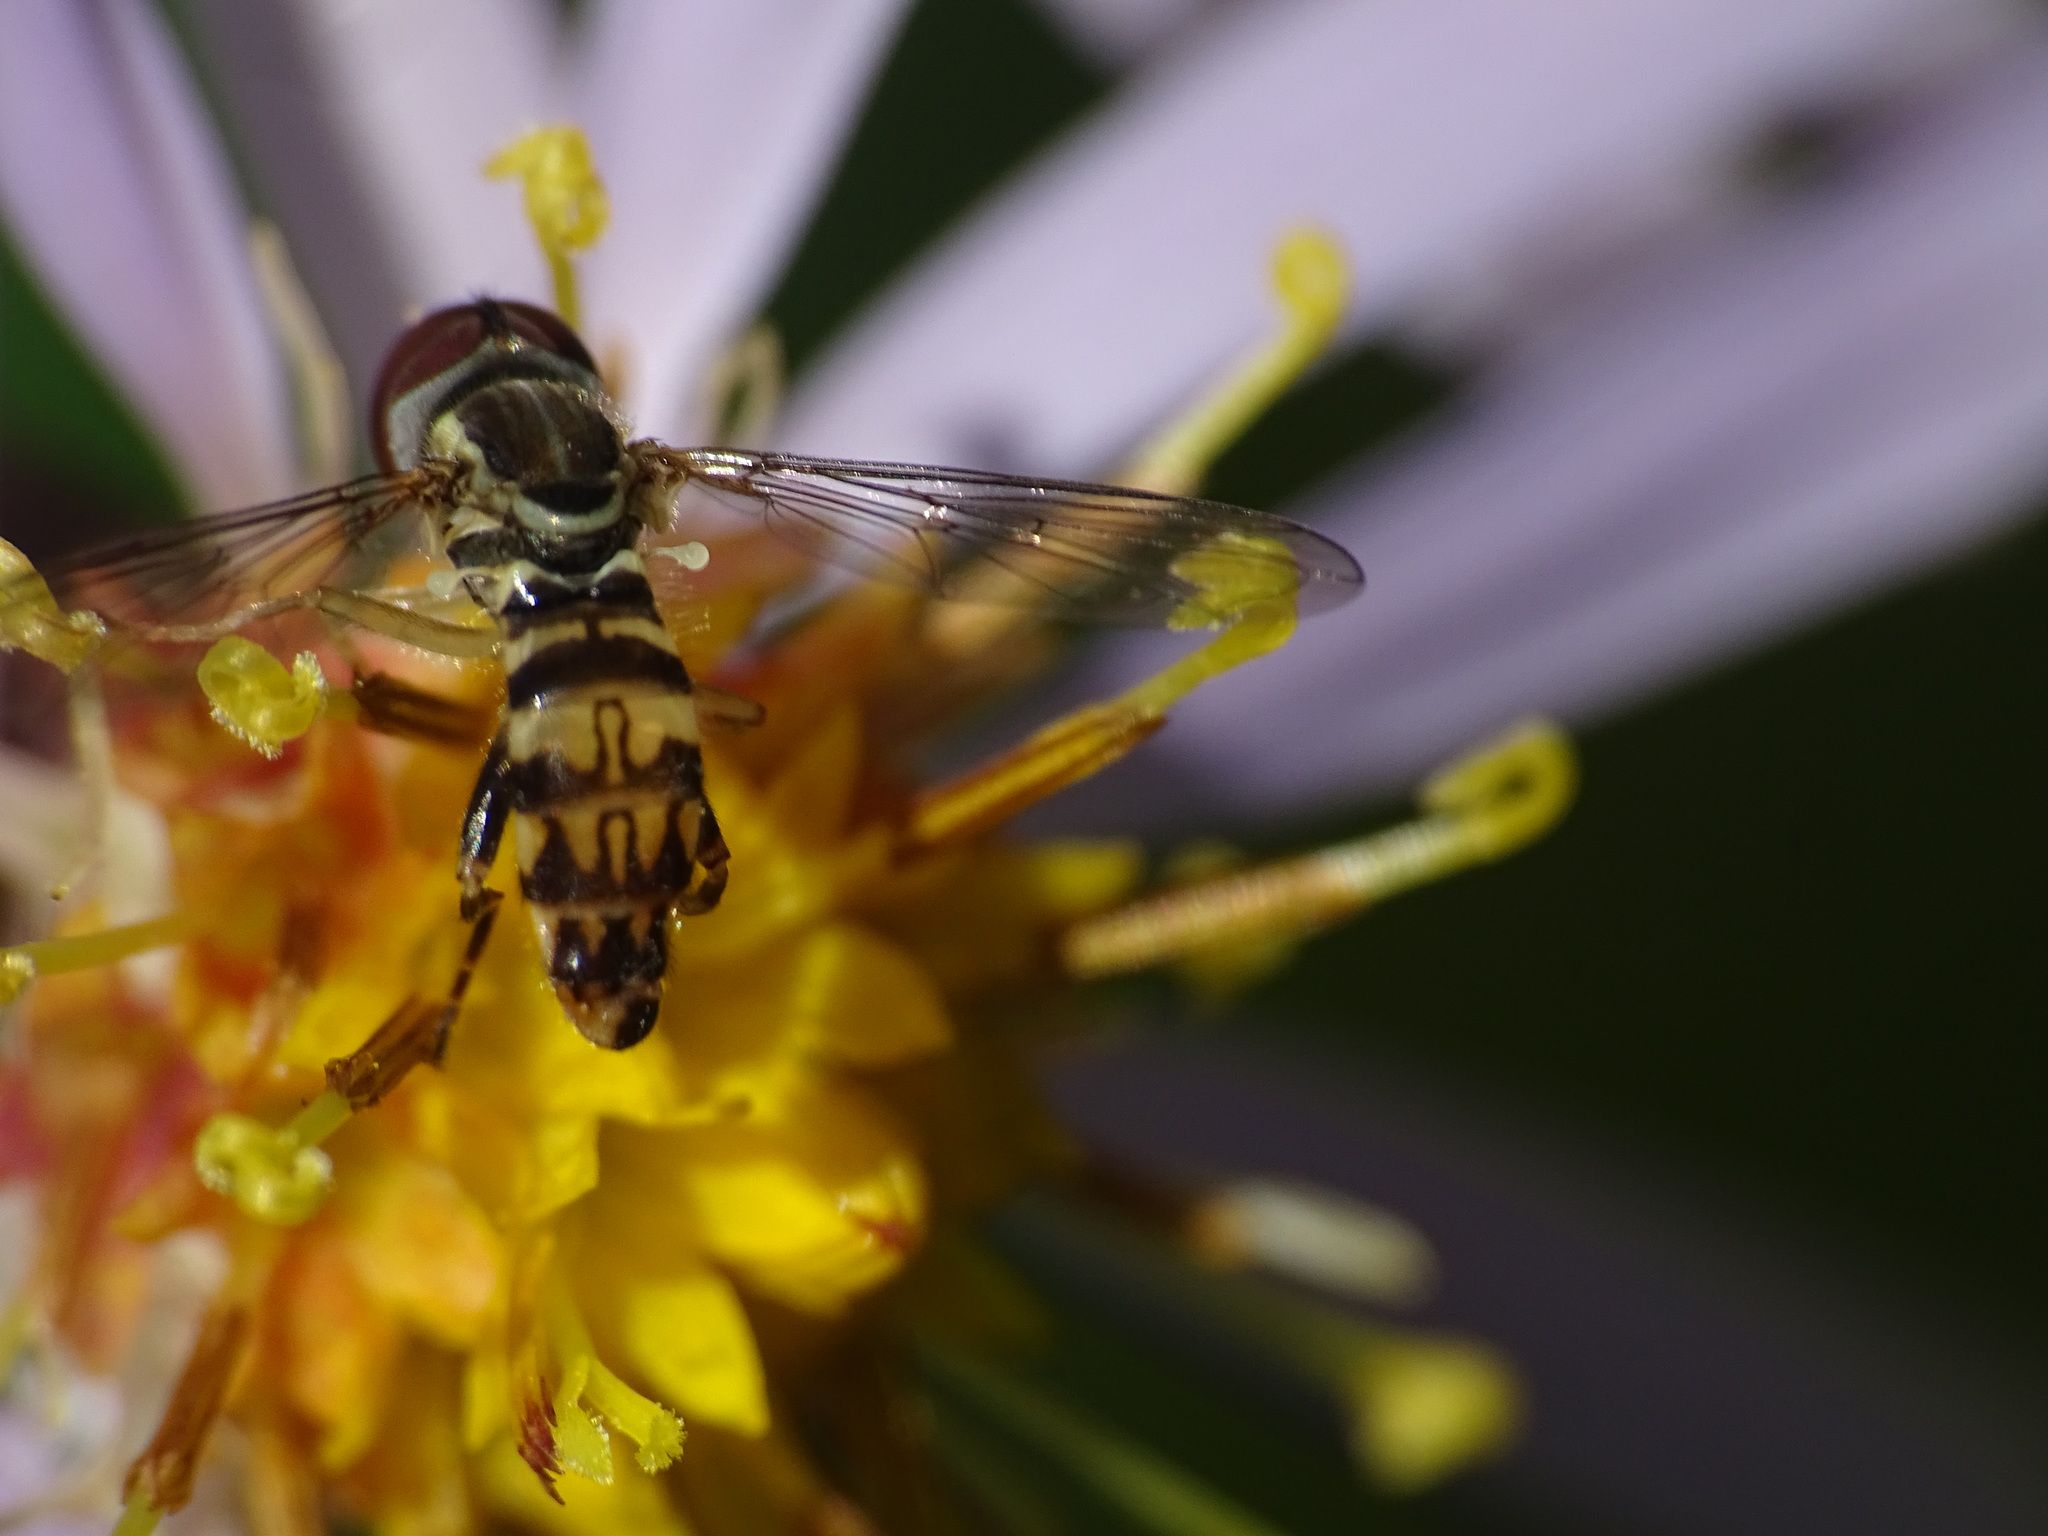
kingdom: Animalia
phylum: Arthropoda
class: Insecta
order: Diptera
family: Syrphidae
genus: Toxomerus
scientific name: Toxomerus geminatus
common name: Eastern calligrapher
